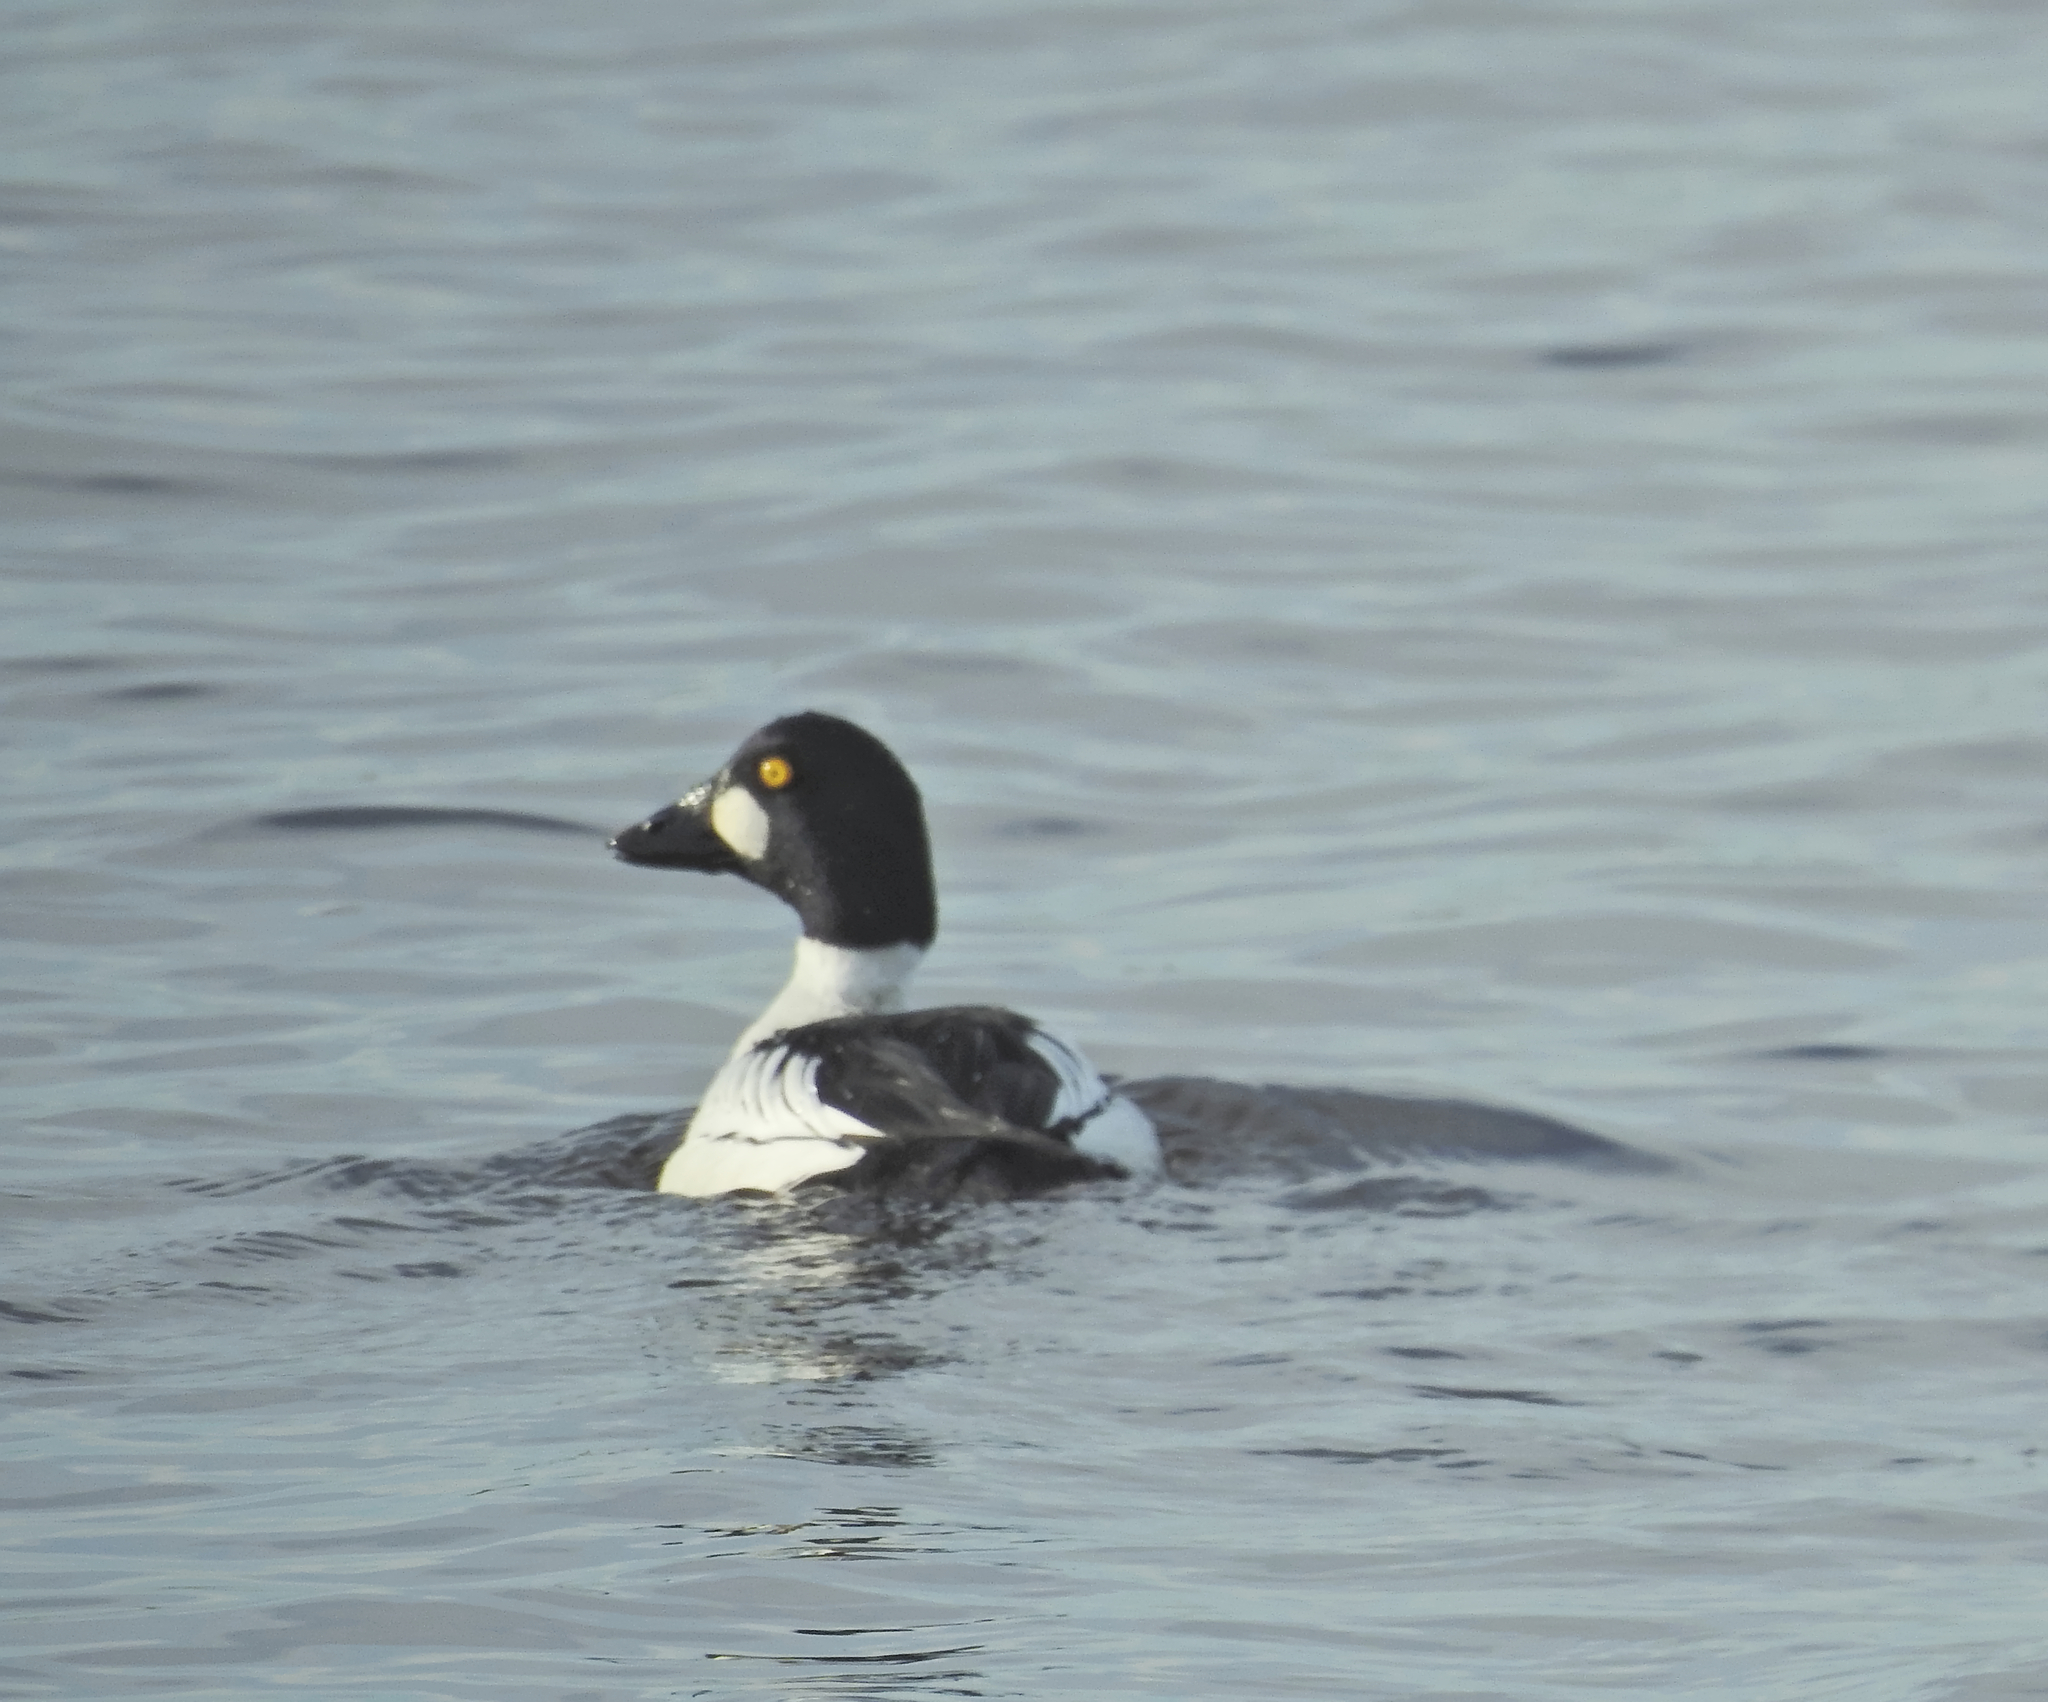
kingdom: Animalia
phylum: Chordata
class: Aves
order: Anseriformes
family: Anatidae
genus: Bucephala
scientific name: Bucephala clangula
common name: Common goldeneye
